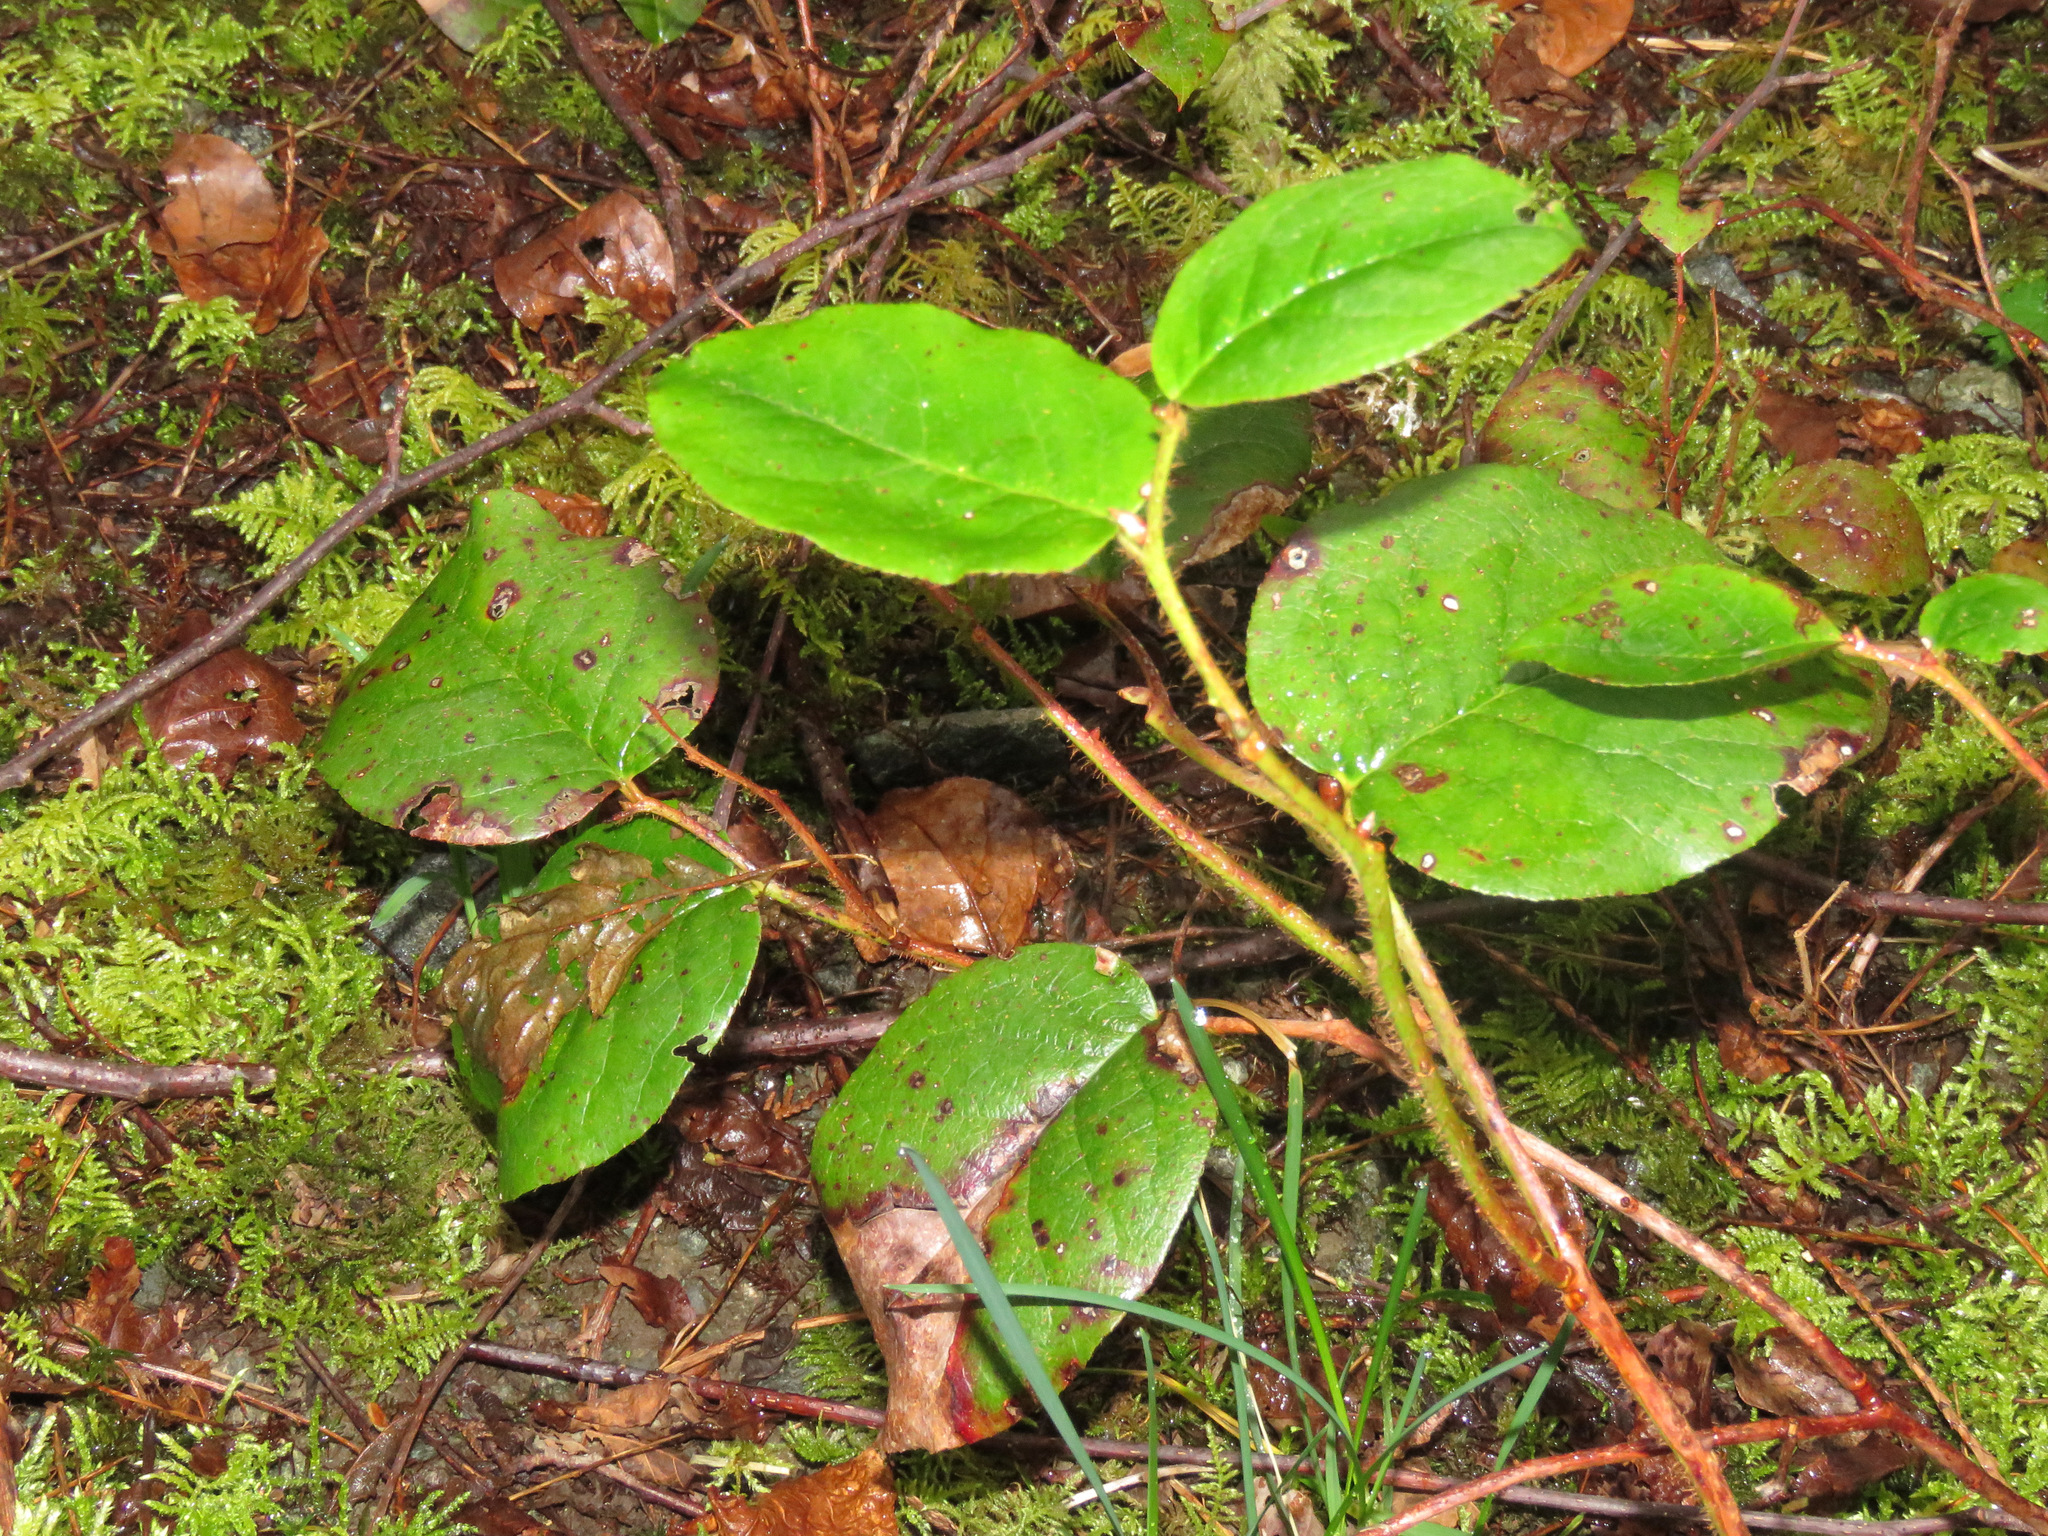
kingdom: Plantae
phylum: Tracheophyta
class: Magnoliopsida
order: Ericales
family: Ericaceae
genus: Gaultheria
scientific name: Gaultheria shallon
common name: Shallon
